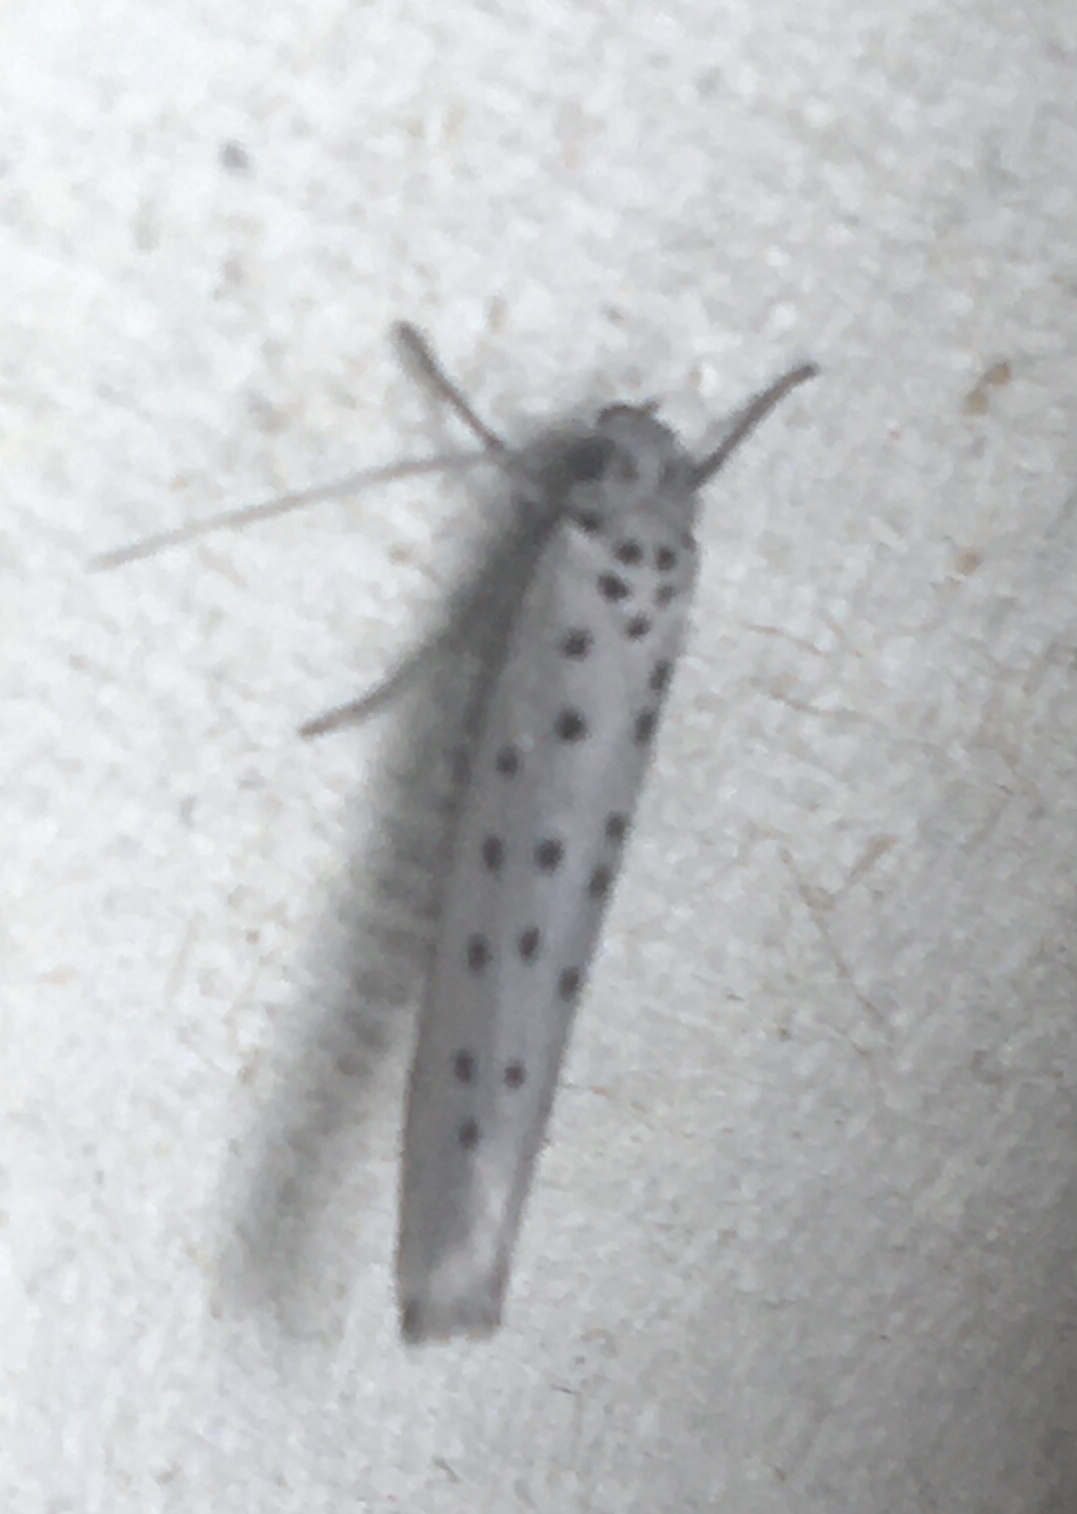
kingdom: Animalia
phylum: Arthropoda
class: Insecta
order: Lepidoptera
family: Yponomeutidae
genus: Yponomeuta
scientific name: Yponomeuta vigintipunctata
